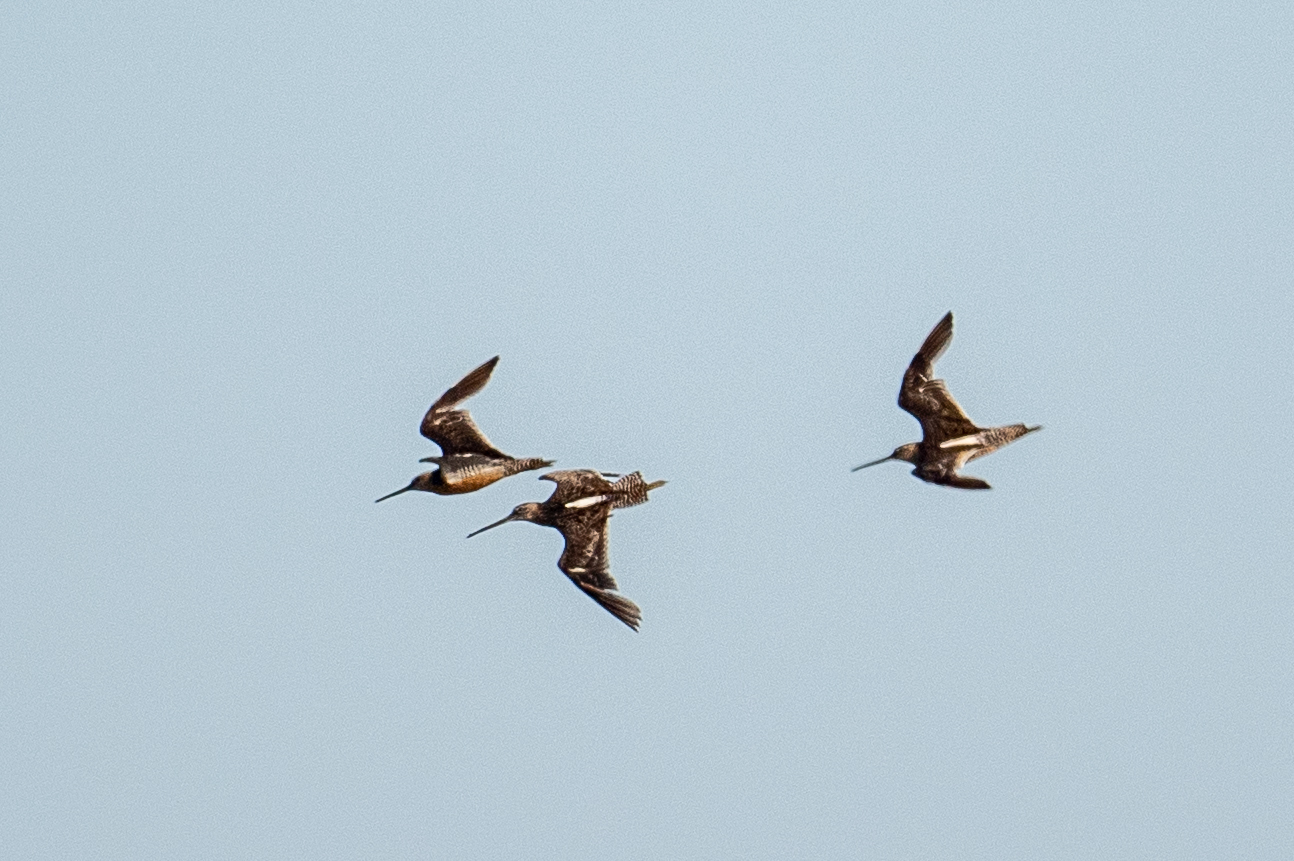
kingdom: Animalia
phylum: Chordata
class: Aves
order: Charadriiformes
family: Scolopacidae
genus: Limnodromus
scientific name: Limnodromus scolopaceus
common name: Long-billed dowitcher
